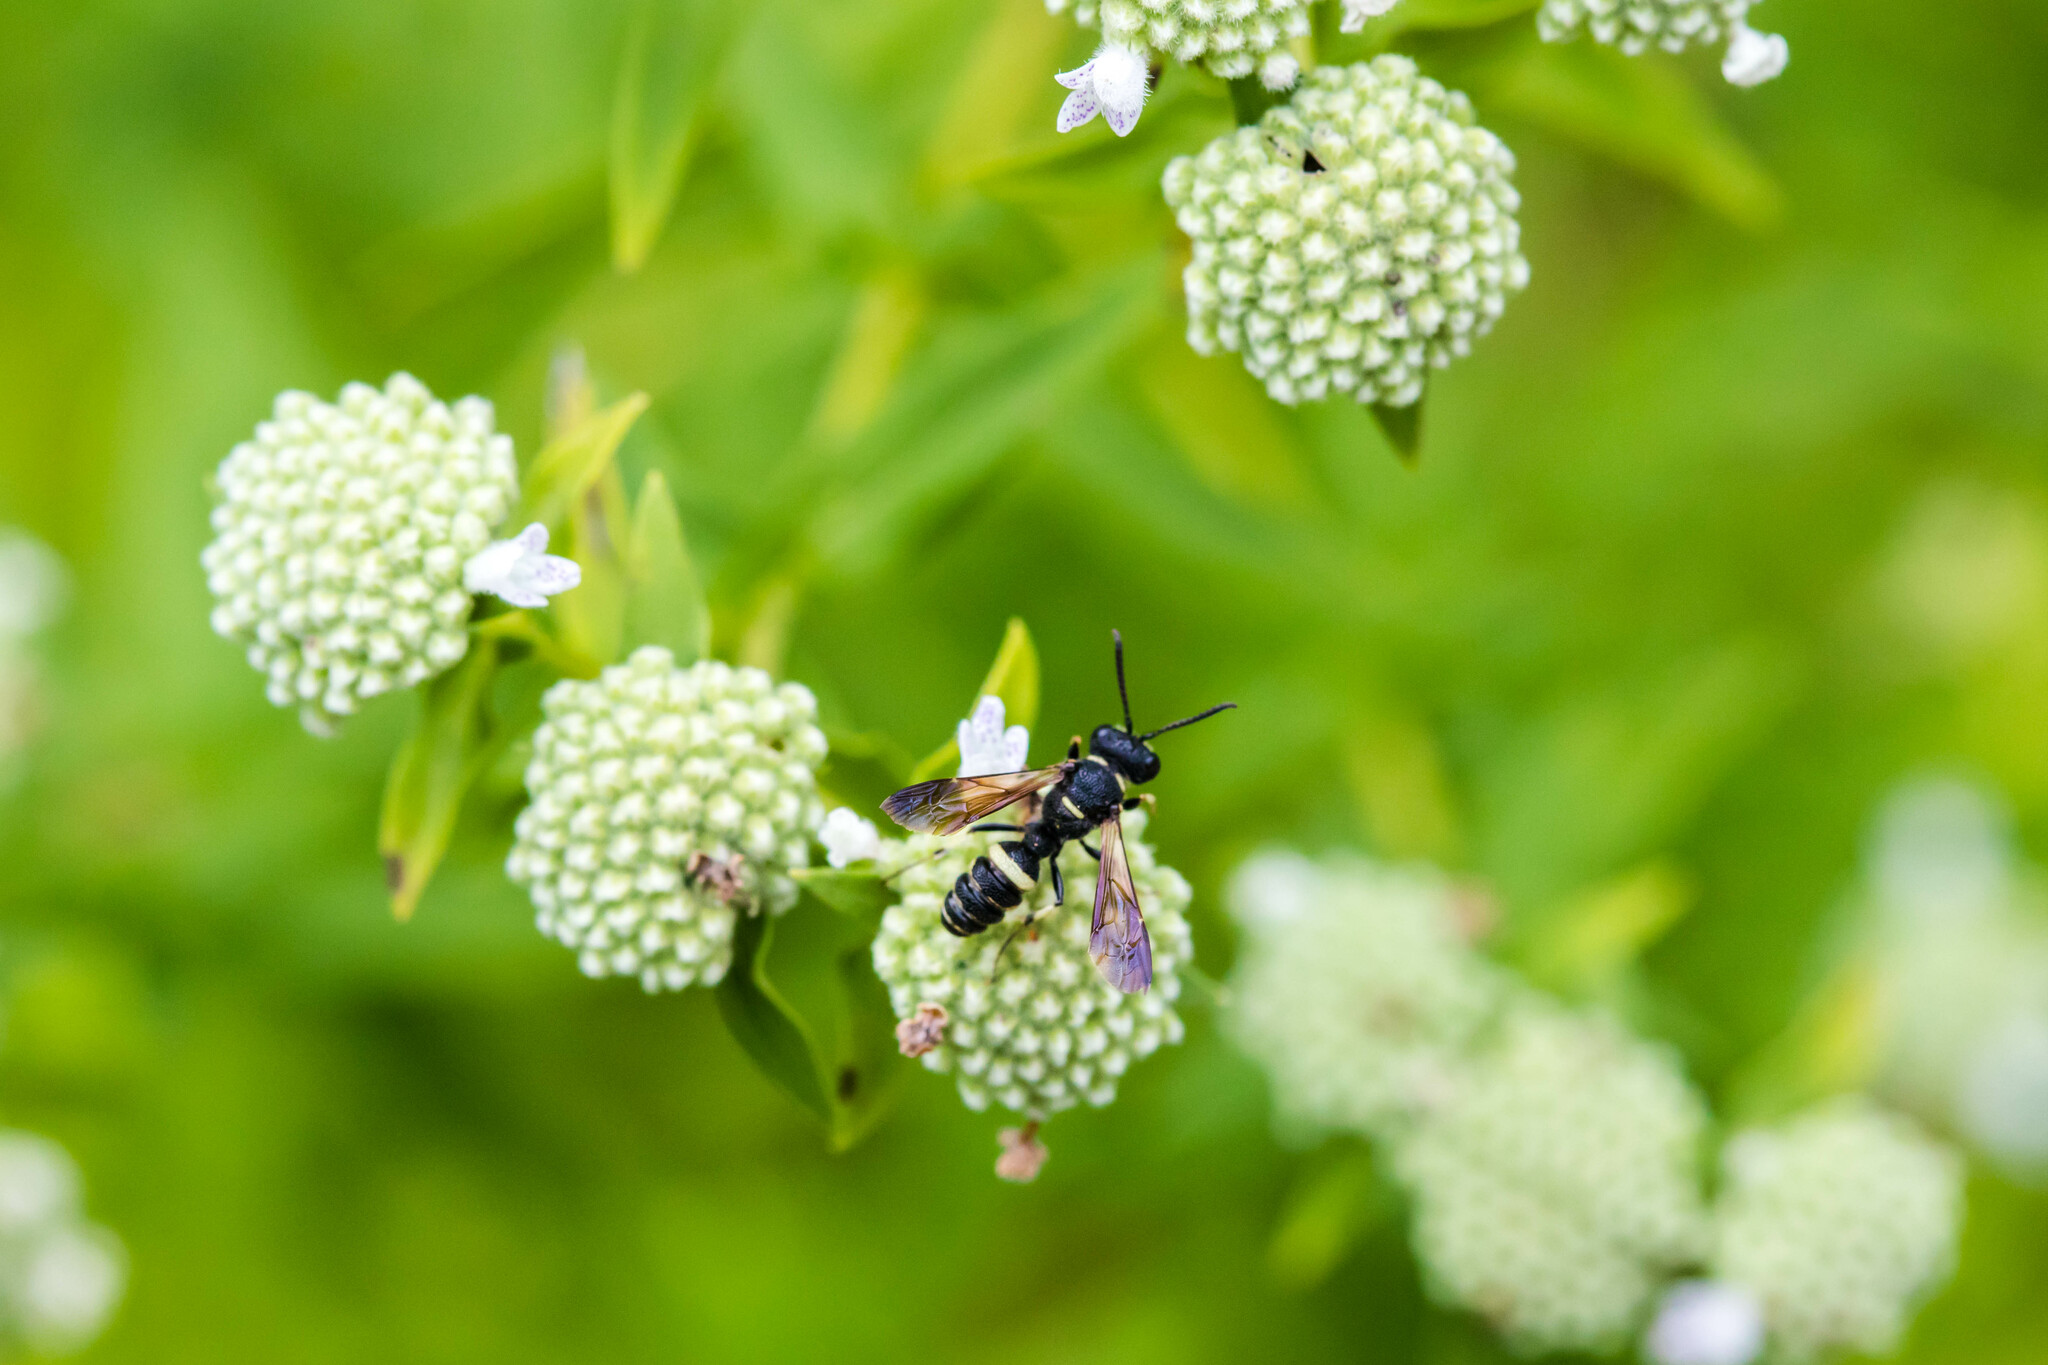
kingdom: Animalia
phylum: Arthropoda
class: Insecta
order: Hymenoptera
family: Crabronidae
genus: Cerceris
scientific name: Cerceris fumipennis
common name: Smokey-winged beetle bandit wasp
